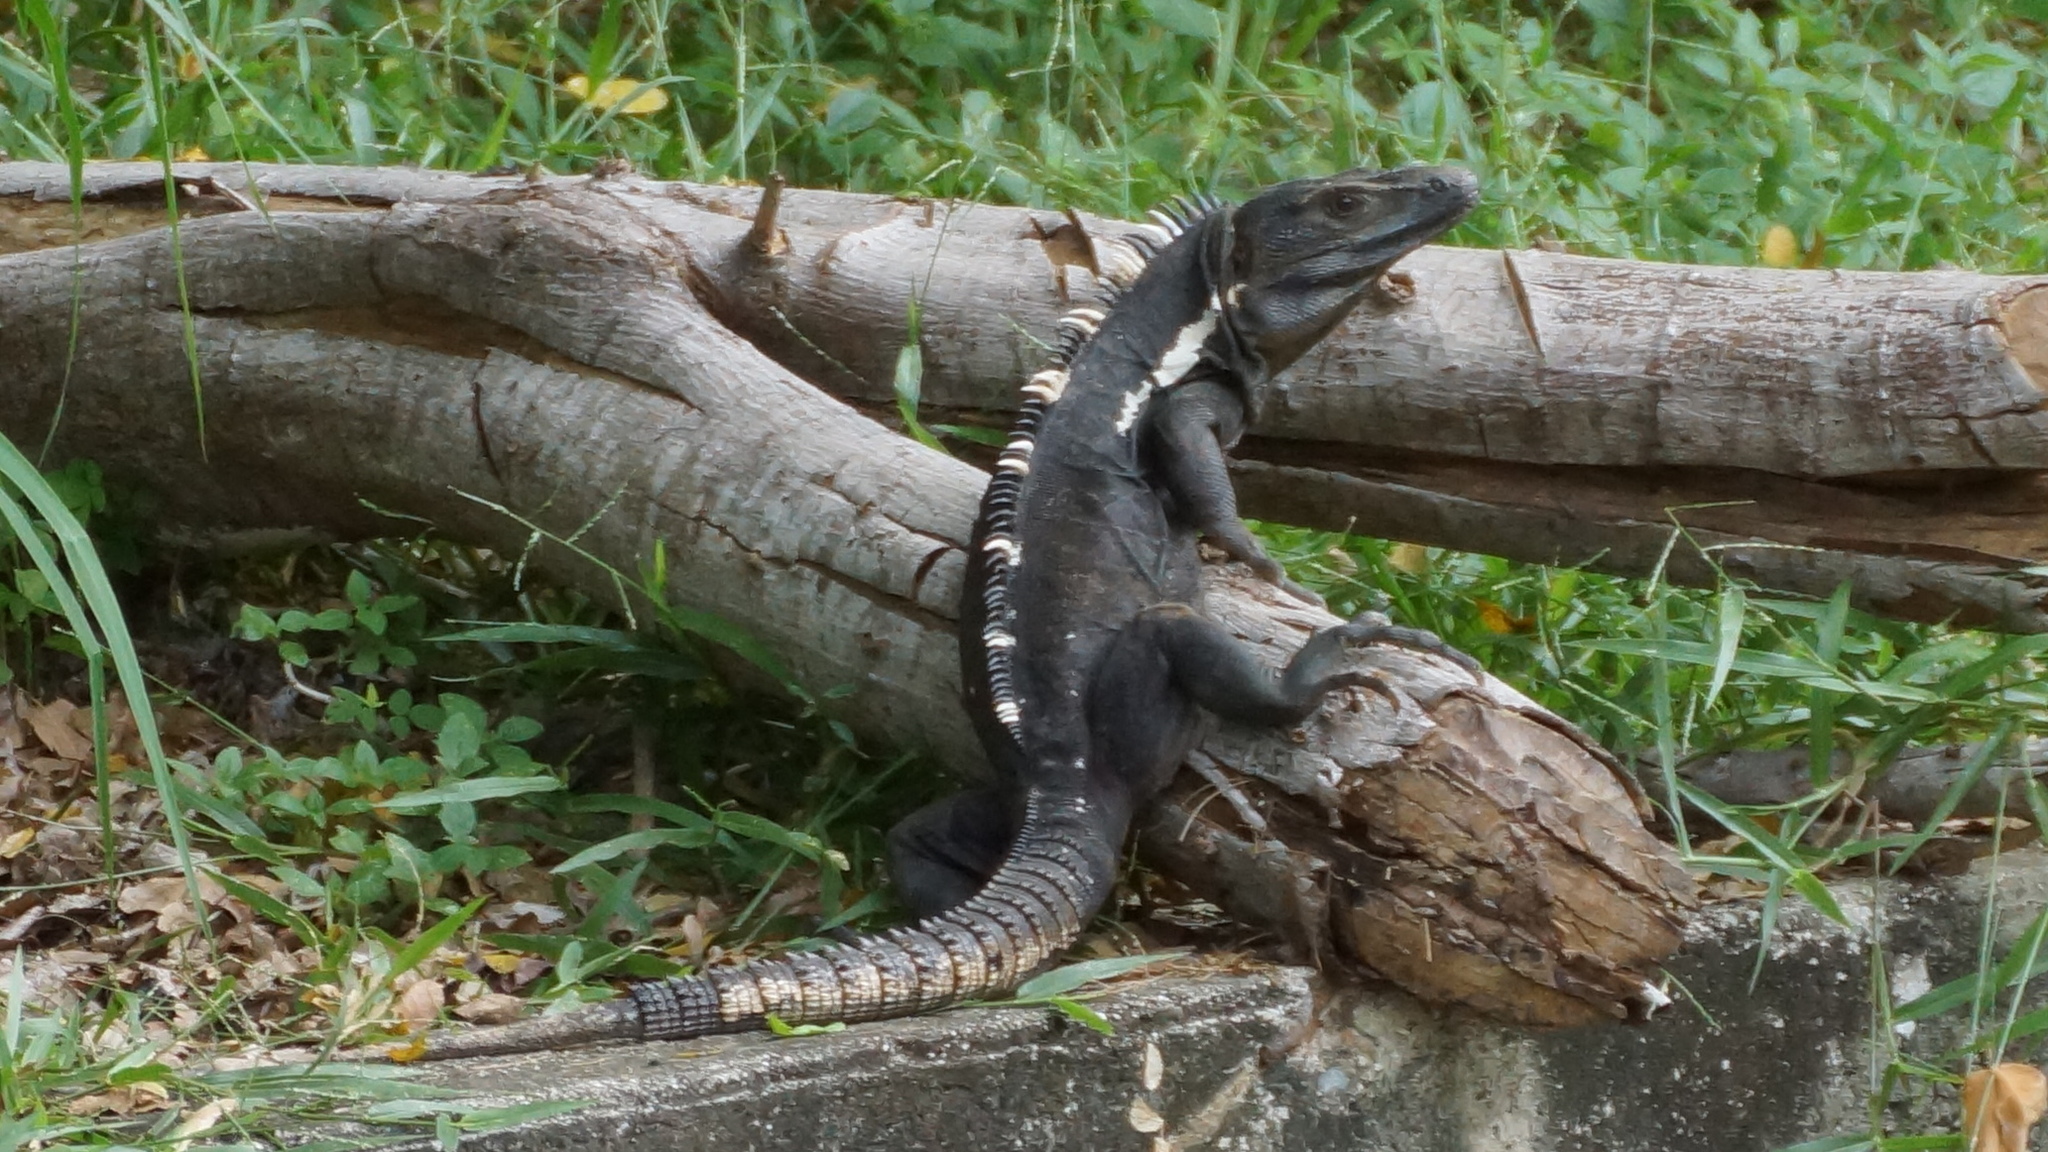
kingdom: Animalia
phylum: Chordata
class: Squamata
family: Iguanidae
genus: Ctenosaura
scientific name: Ctenosaura pectinata
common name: Guerreran spiny-tailed iguana
